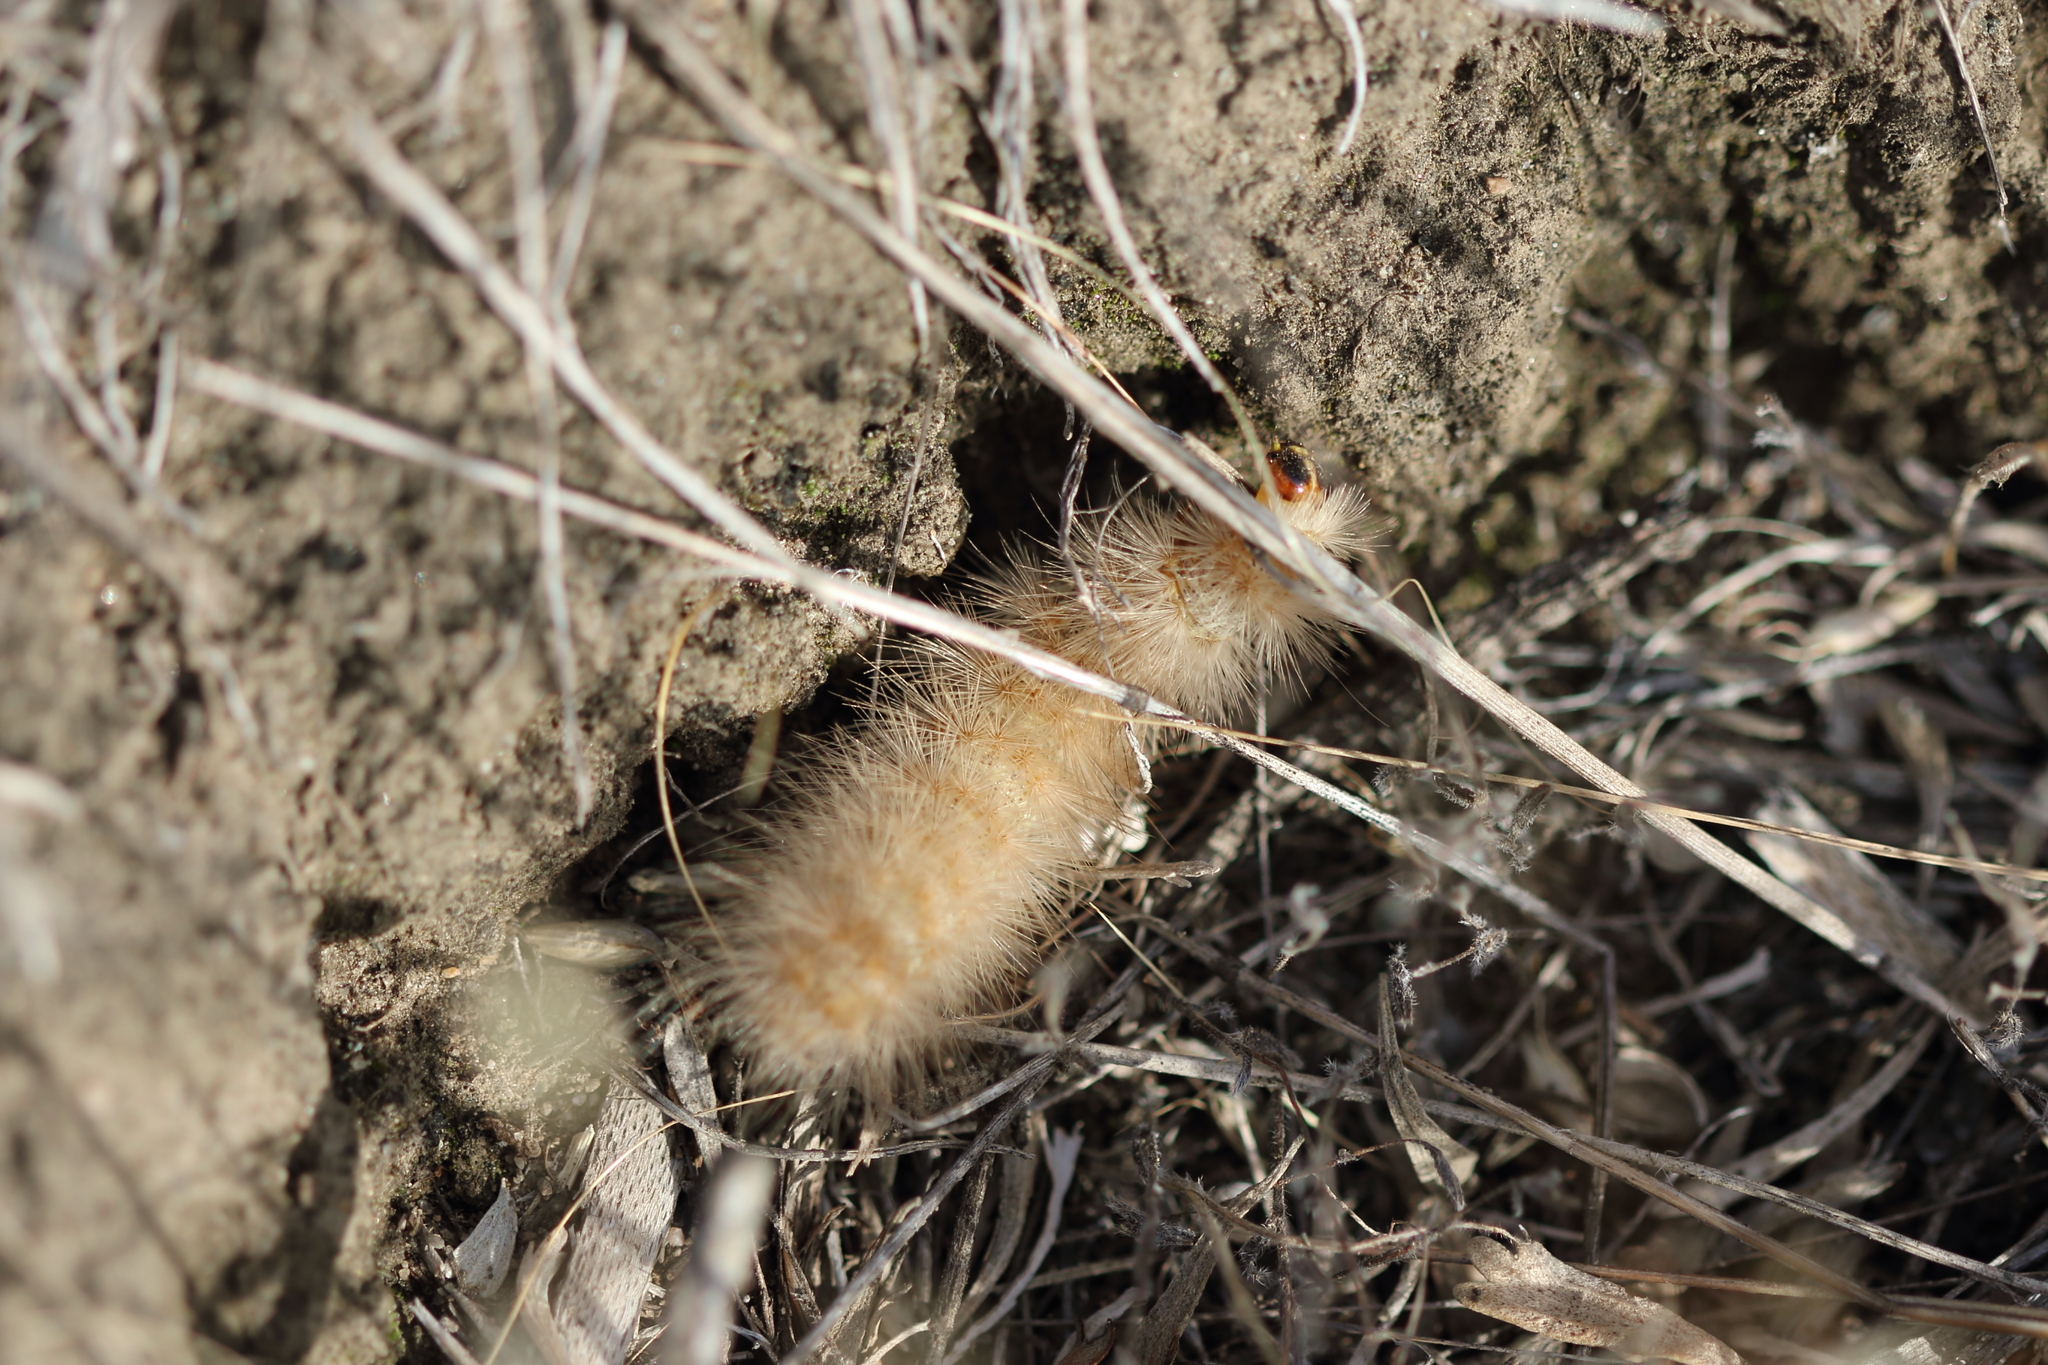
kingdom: Animalia
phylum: Arthropoda
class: Insecta
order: Lepidoptera
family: Erebidae
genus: Estigmene
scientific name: Estigmene acrea
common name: Salt marsh moth
